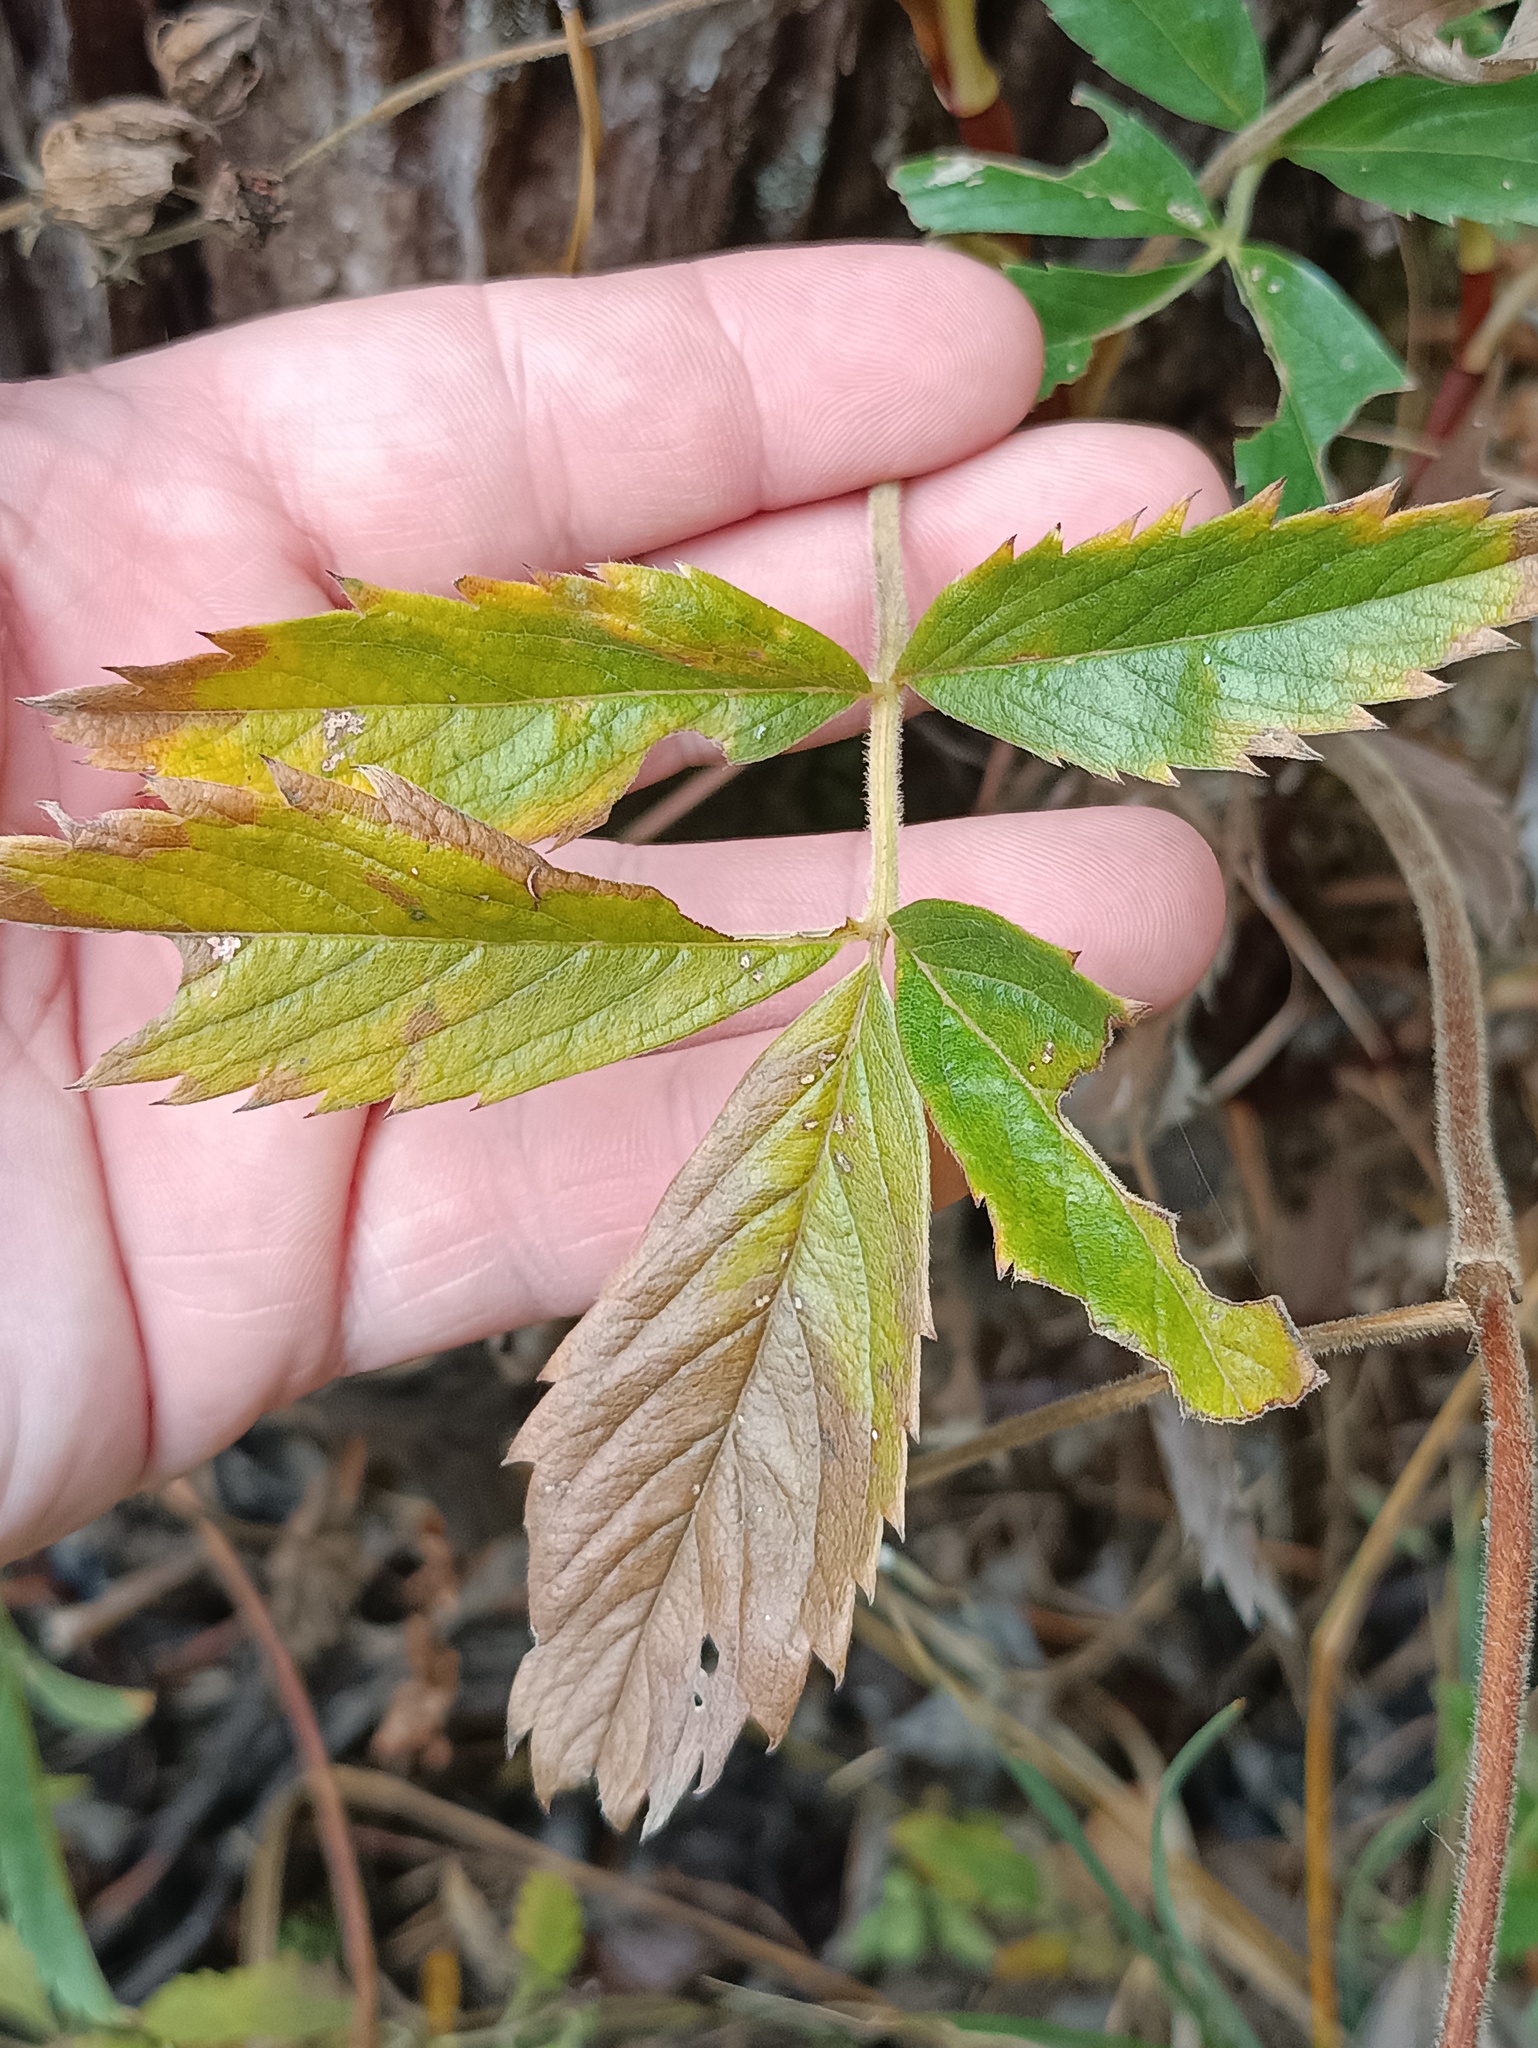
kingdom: Plantae
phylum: Tracheophyta
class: Magnoliopsida
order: Rosales
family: Rosaceae
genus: Comarum
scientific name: Comarum palustre
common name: Marsh cinquefoil
